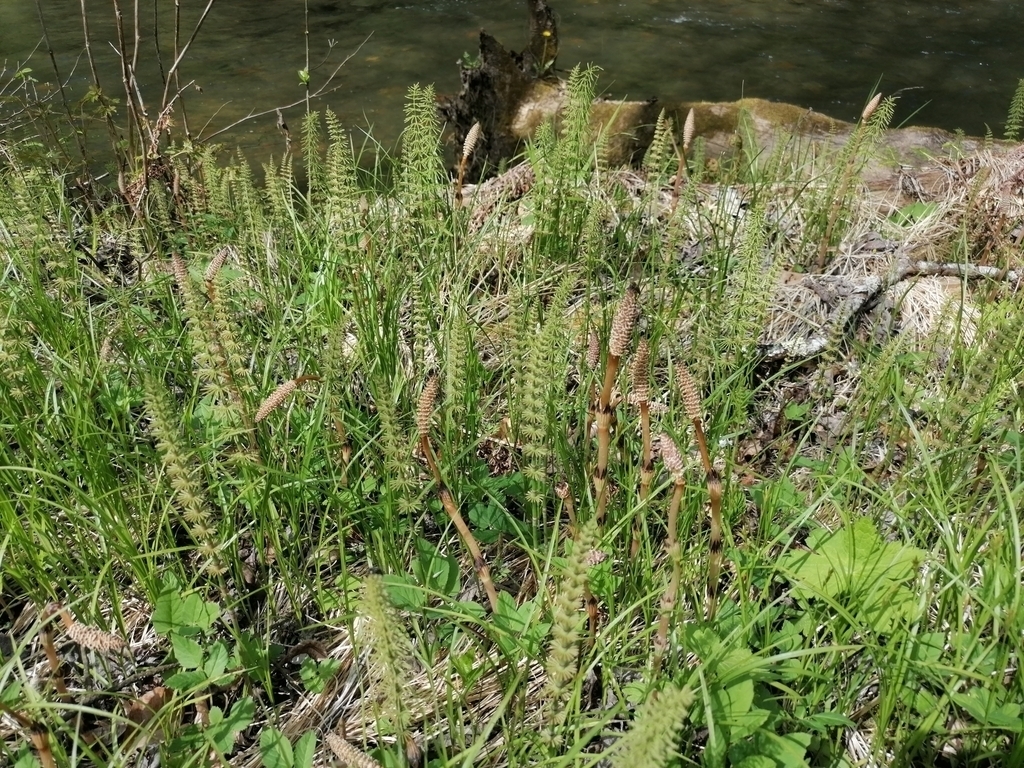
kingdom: Plantae
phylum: Tracheophyta
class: Polypodiopsida
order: Equisetales
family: Equisetaceae
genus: Equisetum
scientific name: Equisetum pratense
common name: Meadow horsetail
